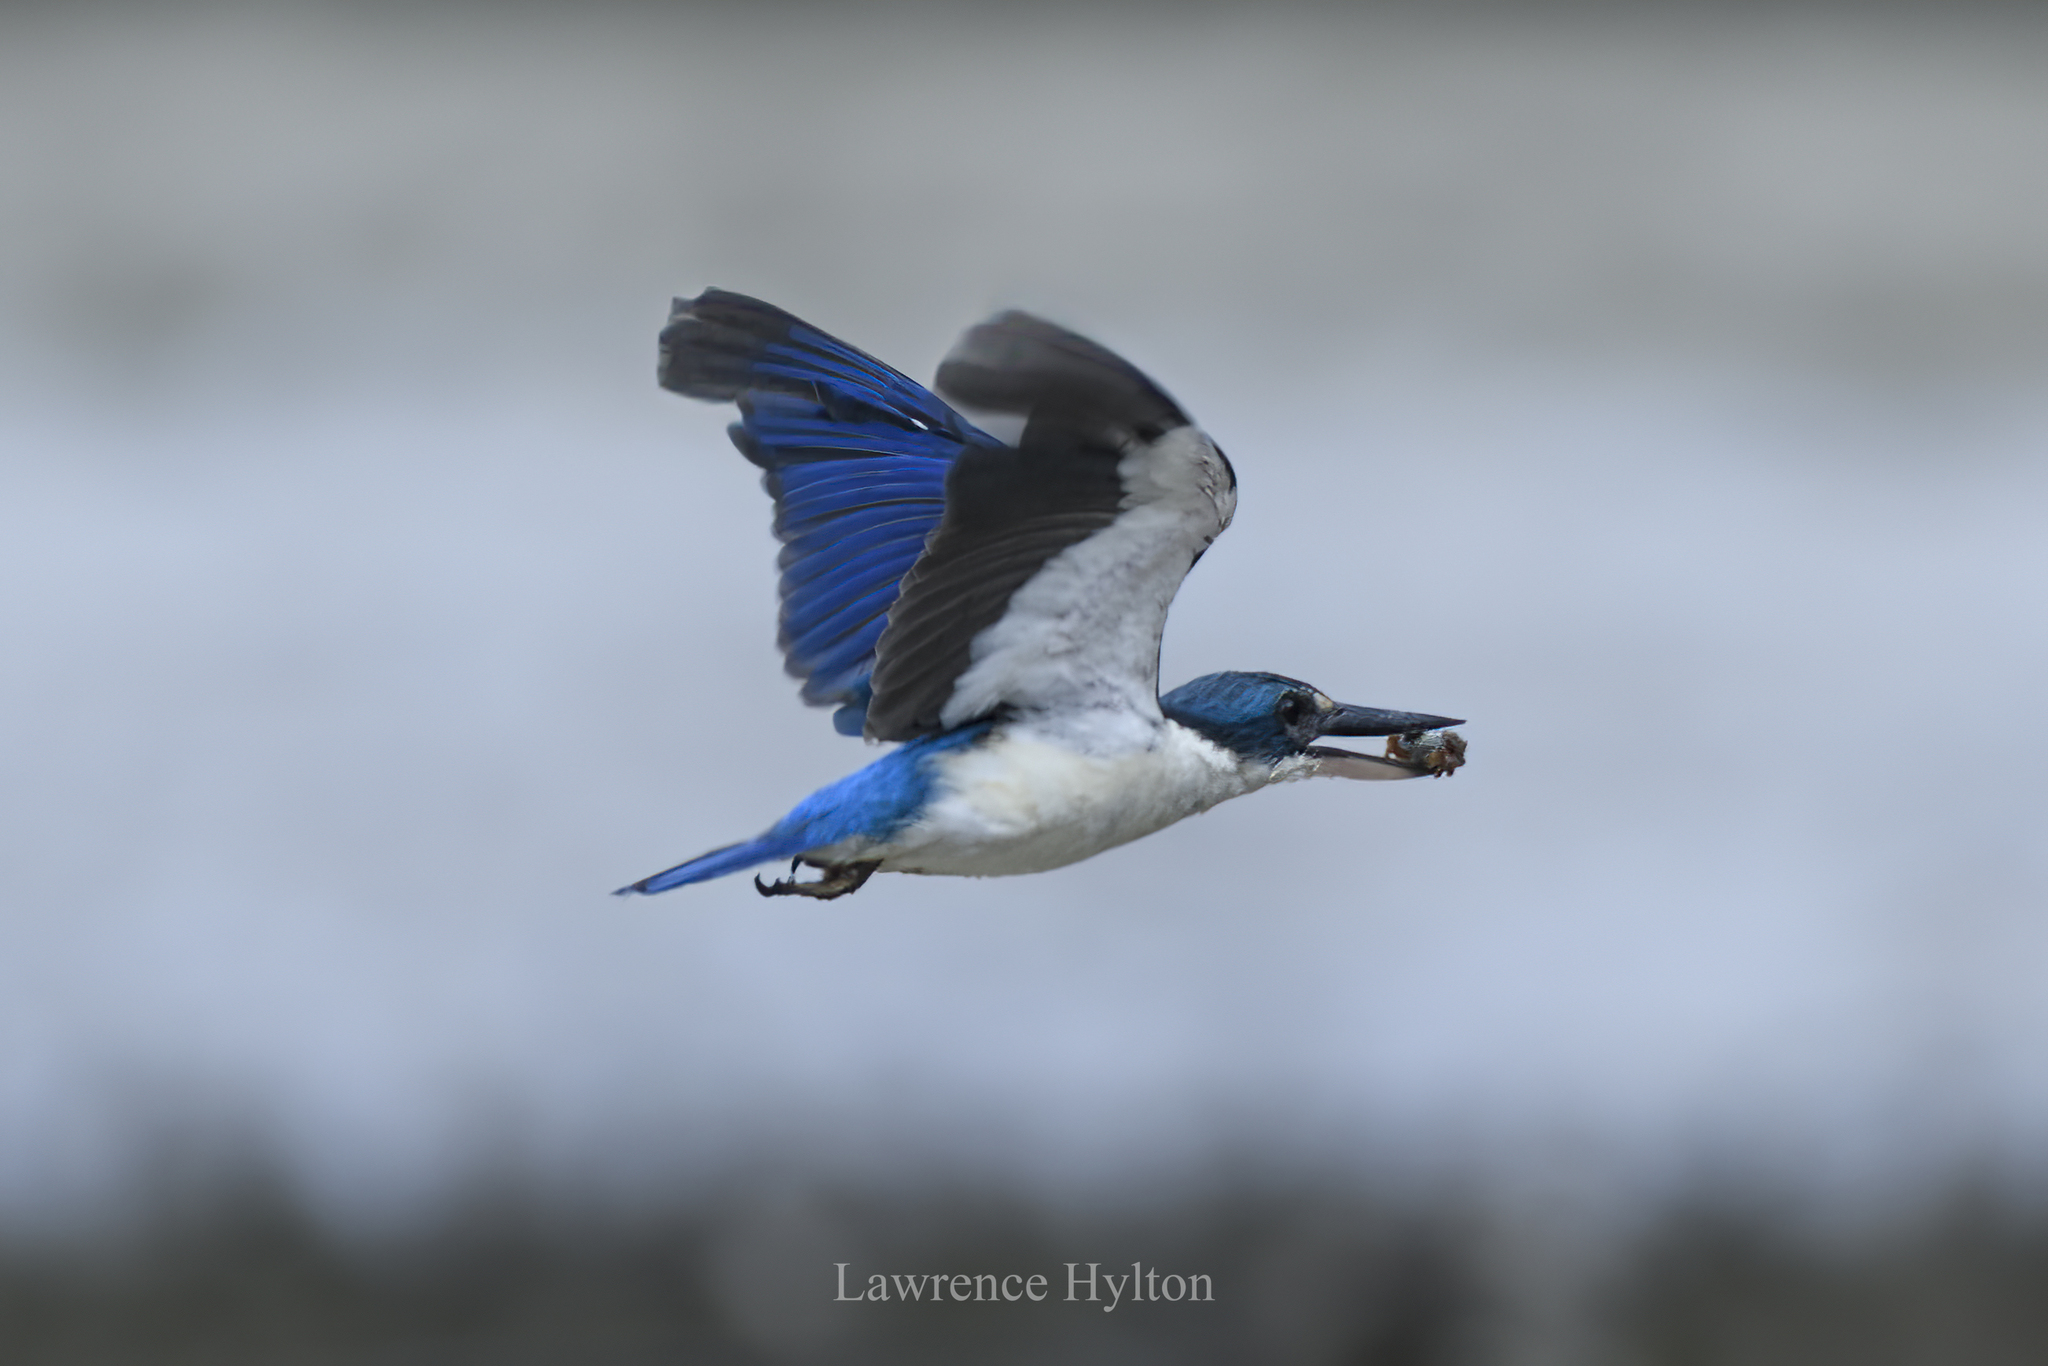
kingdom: Animalia
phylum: Chordata
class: Aves
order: Coraciiformes
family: Alcedinidae
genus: Todiramphus
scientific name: Todiramphus chloris
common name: Collared kingfisher
